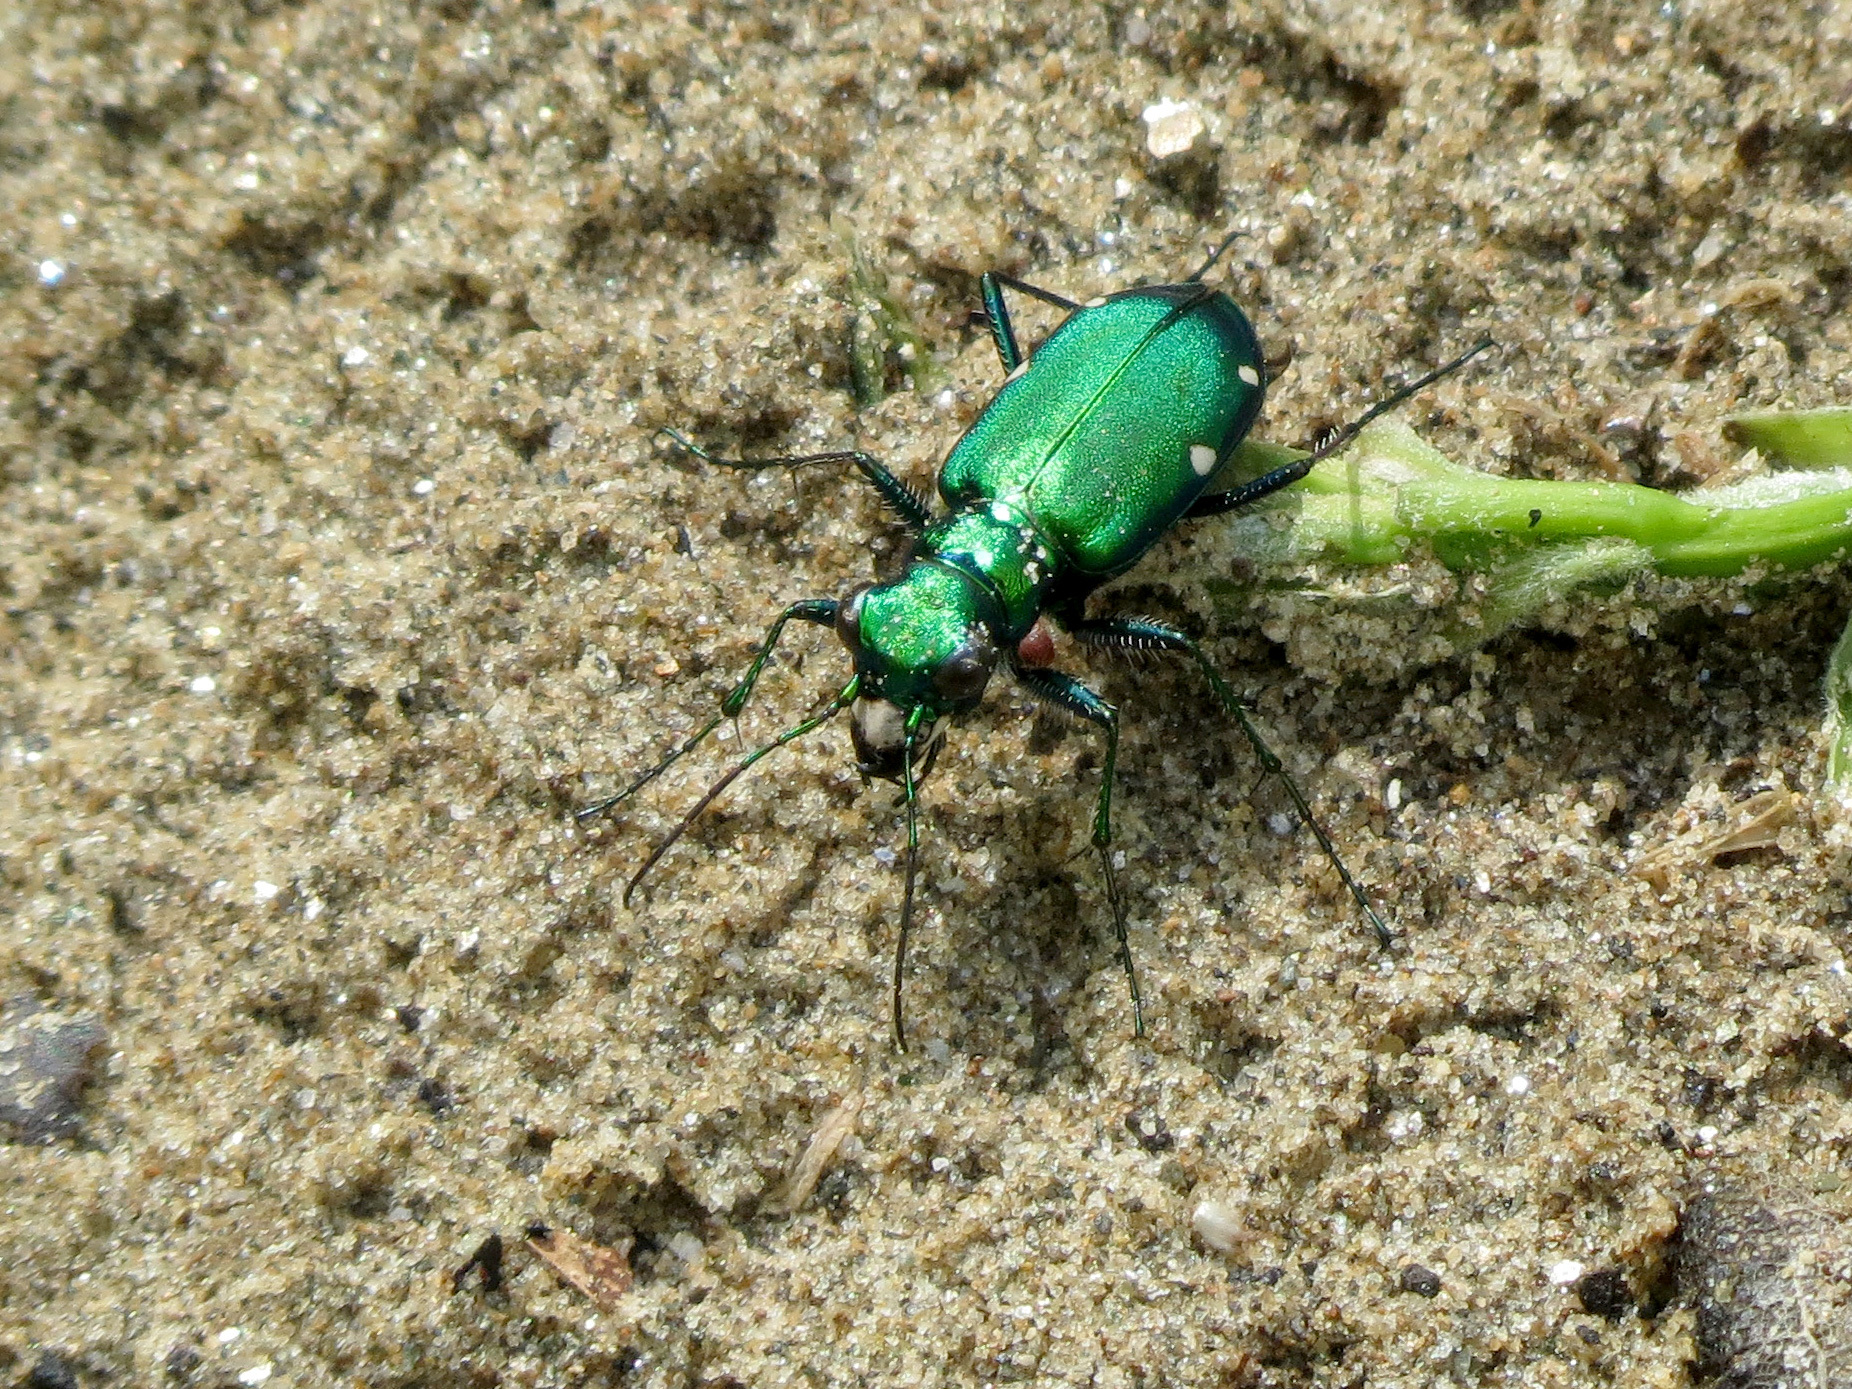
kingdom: Animalia
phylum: Arthropoda
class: Insecta
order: Coleoptera
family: Carabidae
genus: Cicindela
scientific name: Cicindela sexguttata
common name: Six-spotted tiger beetle
